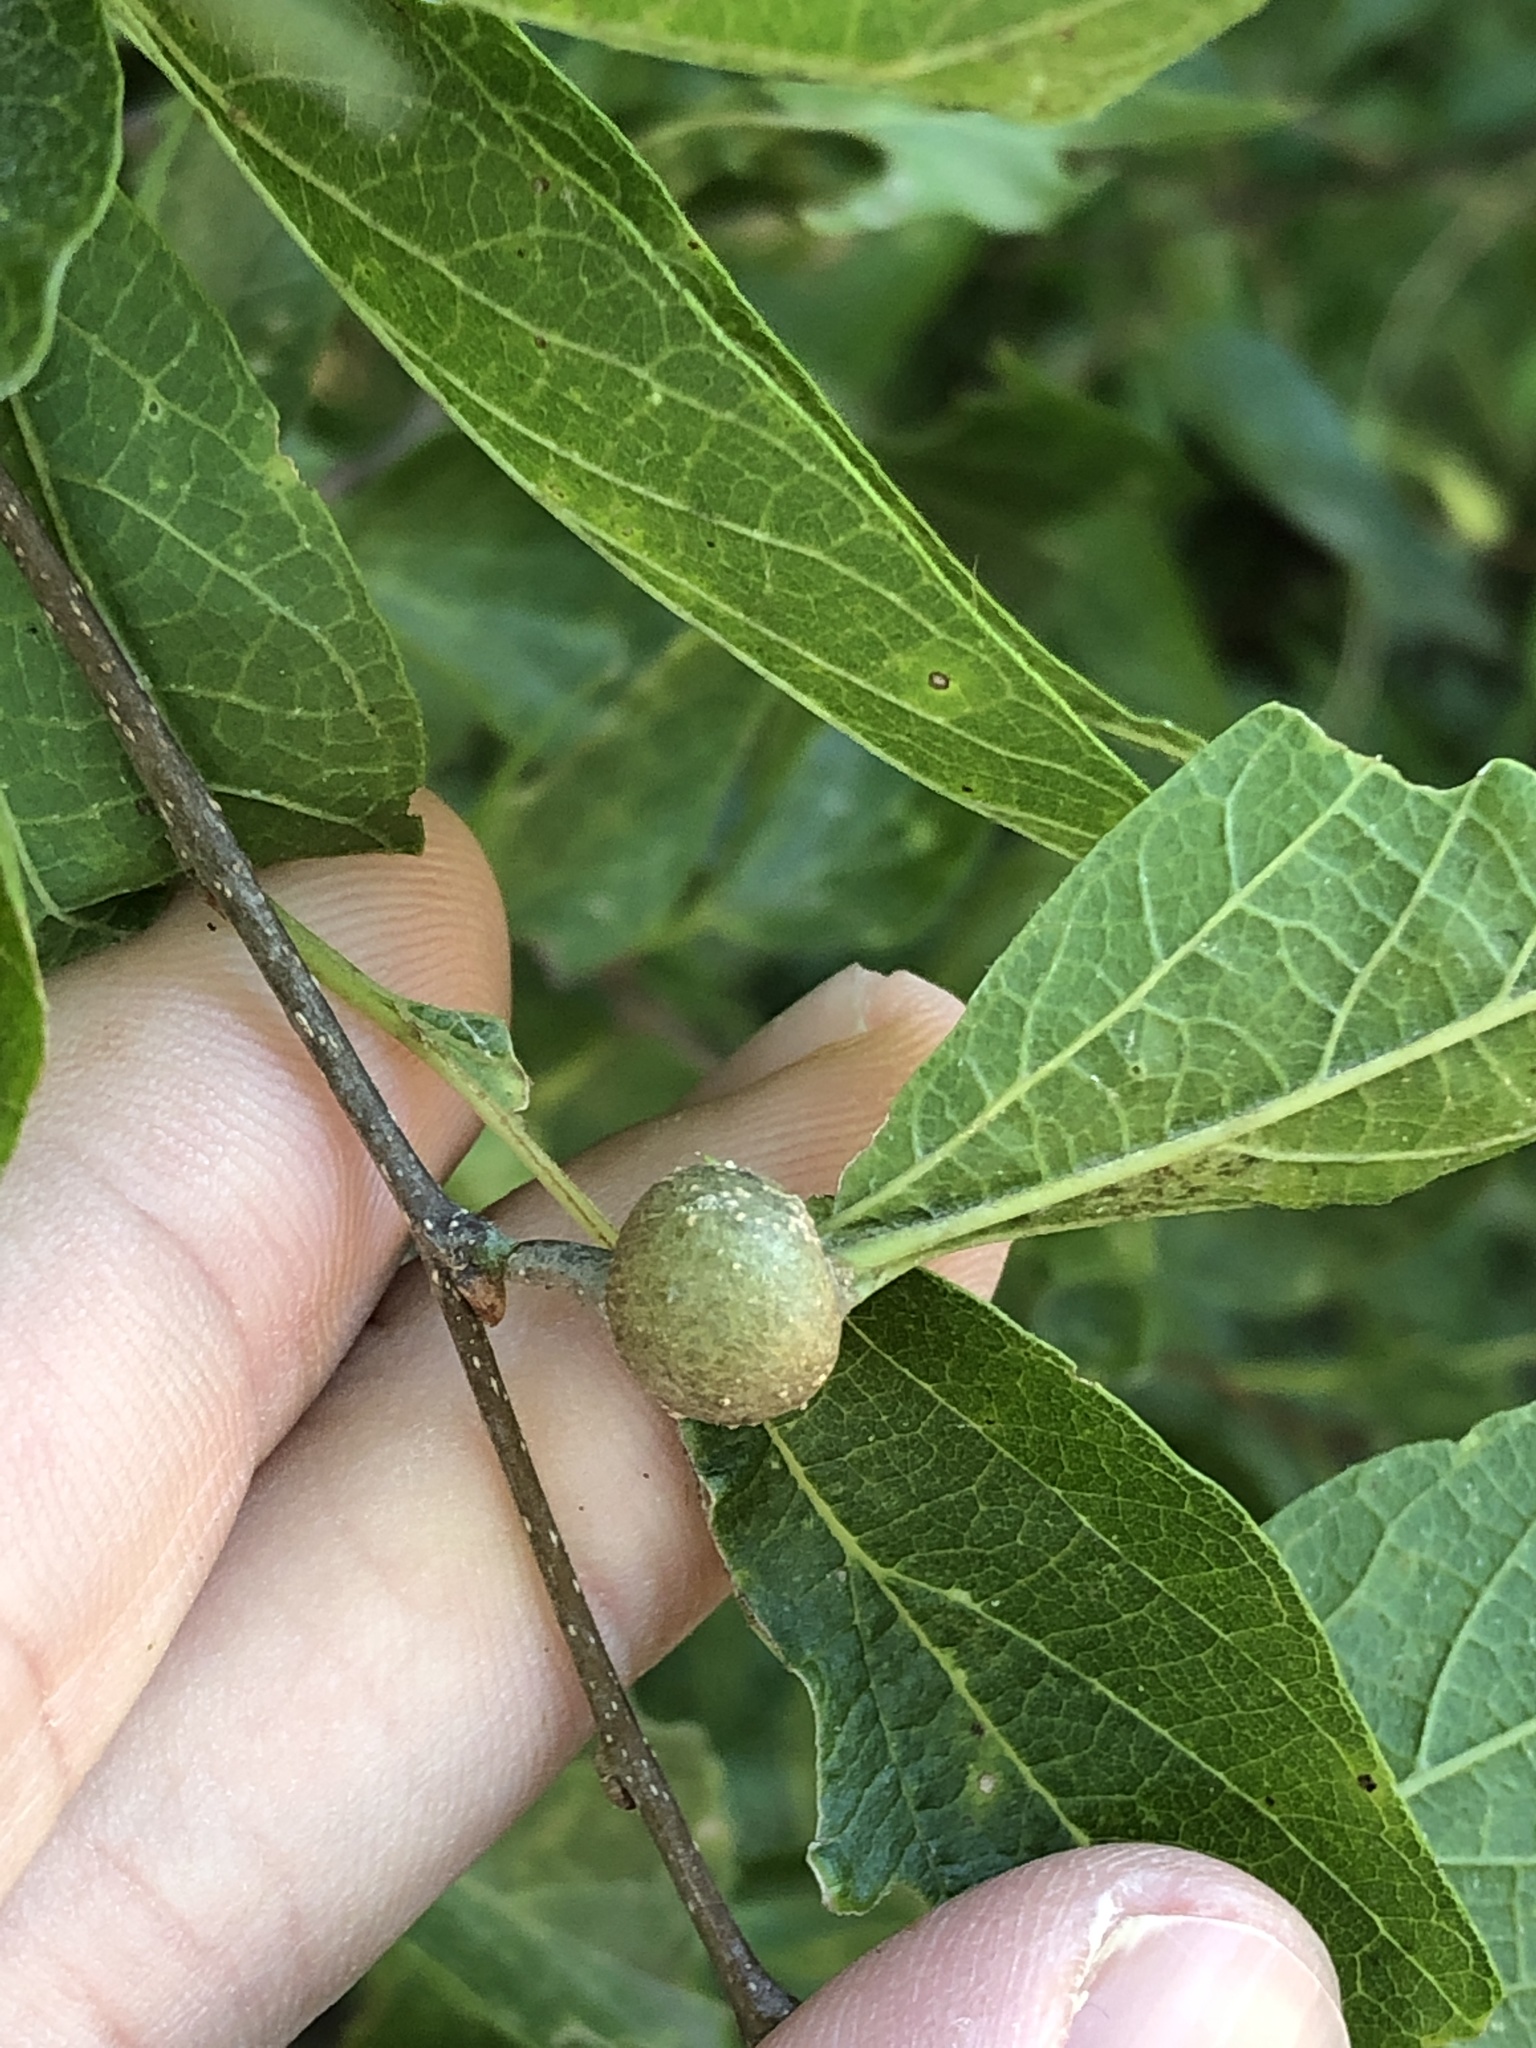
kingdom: Animalia
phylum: Arthropoda
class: Insecta
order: Hemiptera
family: Aphalaridae
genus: Pachypsylla
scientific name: Pachypsylla venusta
